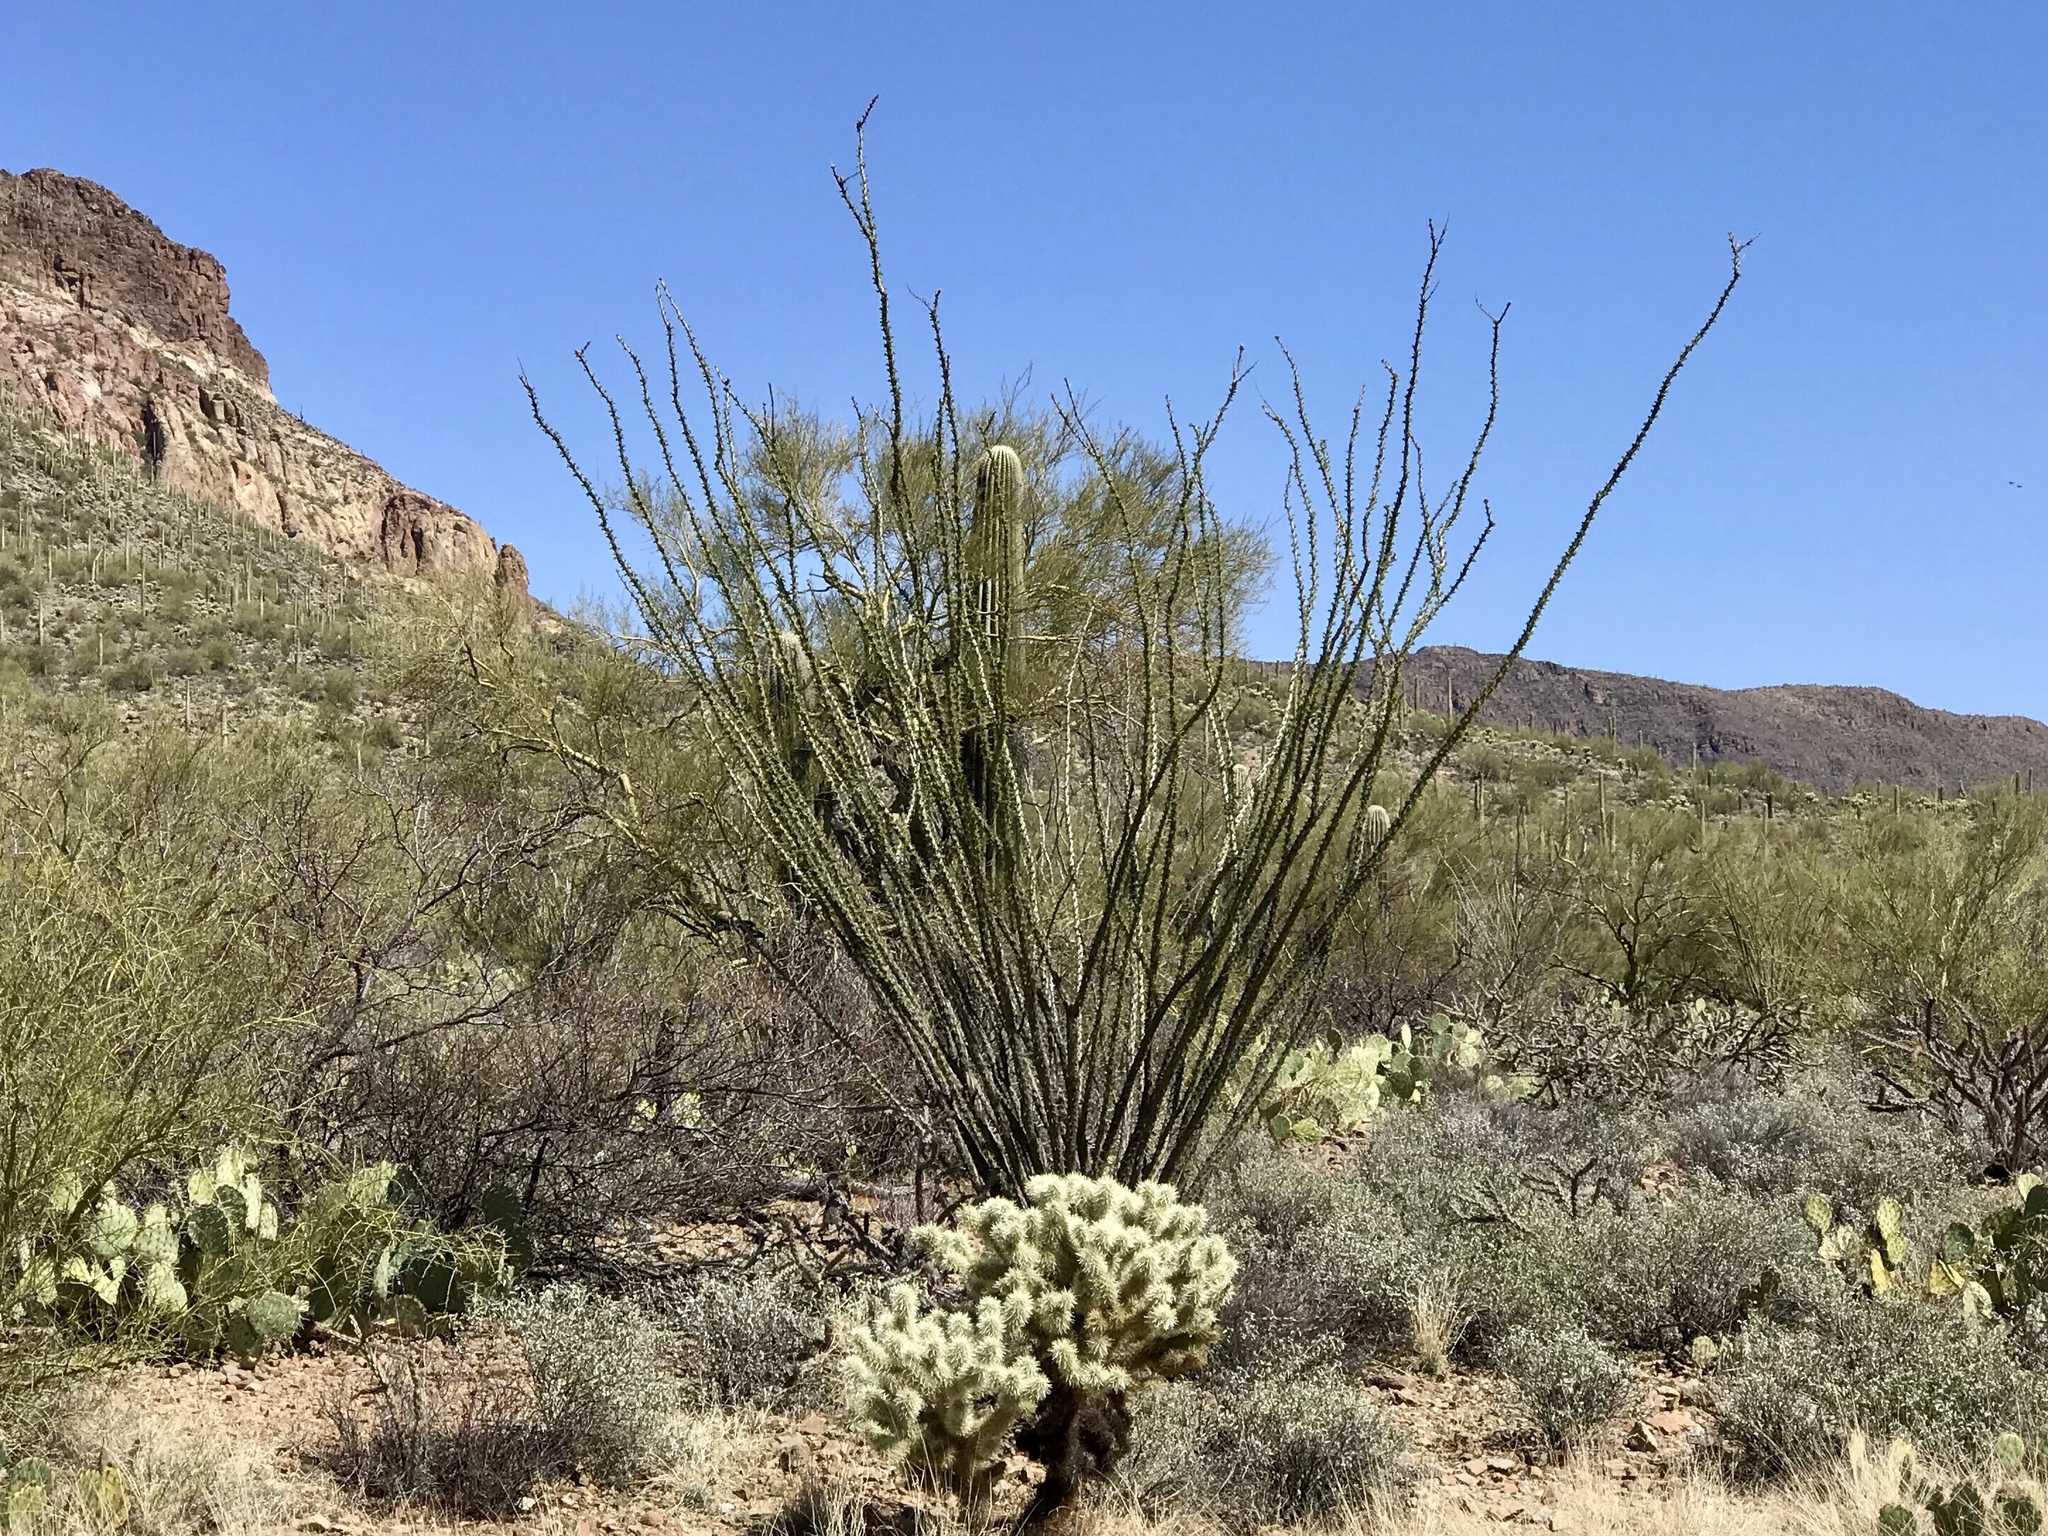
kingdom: Plantae
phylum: Tracheophyta
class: Magnoliopsida
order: Ericales
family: Fouquieriaceae
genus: Fouquieria
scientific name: Fouquieria splendens
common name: Vine-cactus
